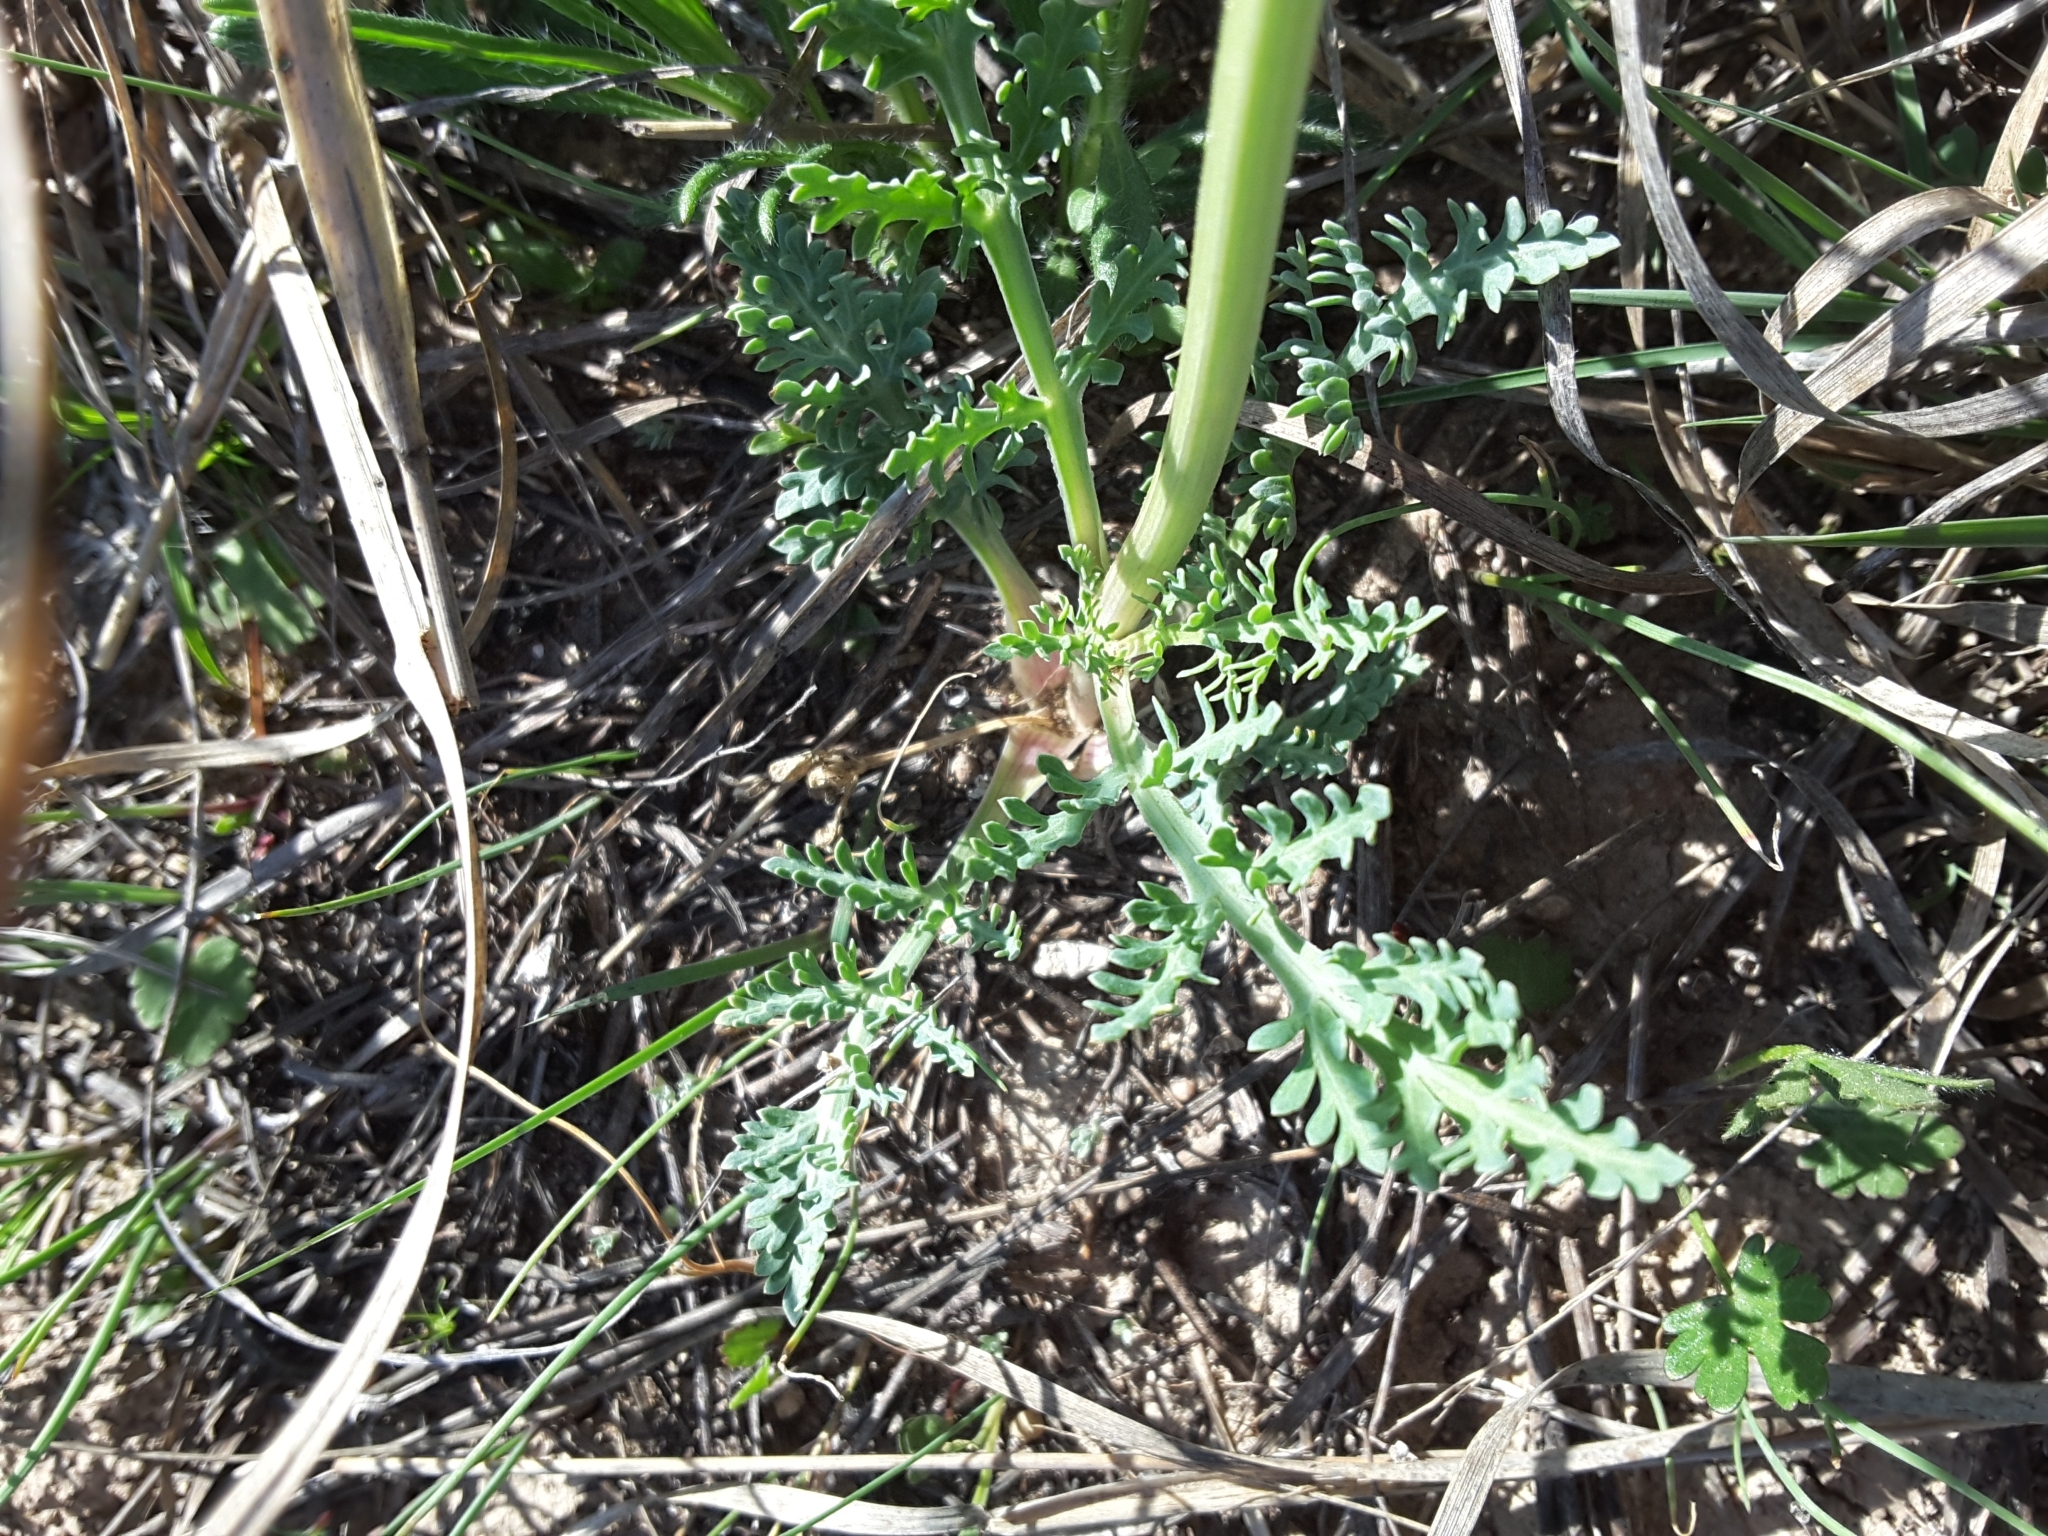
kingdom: Plantae
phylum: Tracheophyta
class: Magnoliopsida
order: Apiales
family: Apiaceae
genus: Vesper
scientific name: Vesper macrorhizus
